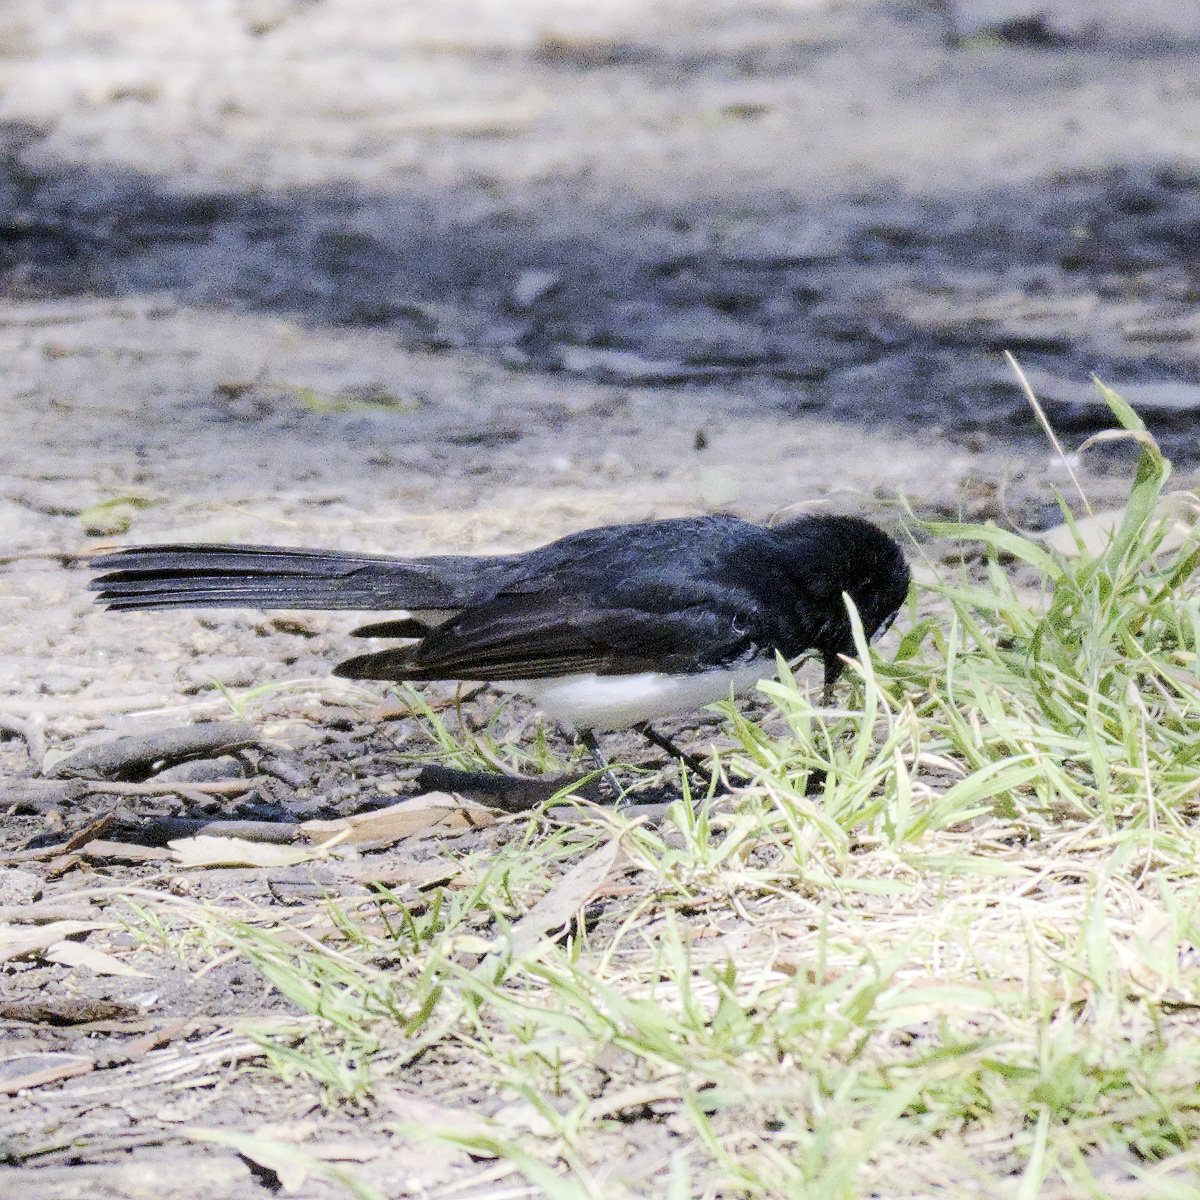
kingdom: Animalia
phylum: Chordata
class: Aves
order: Passeriformes
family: Rhipiduridae
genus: Rhipidura
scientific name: Rhipidura leucophrys
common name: Willie wagtail
